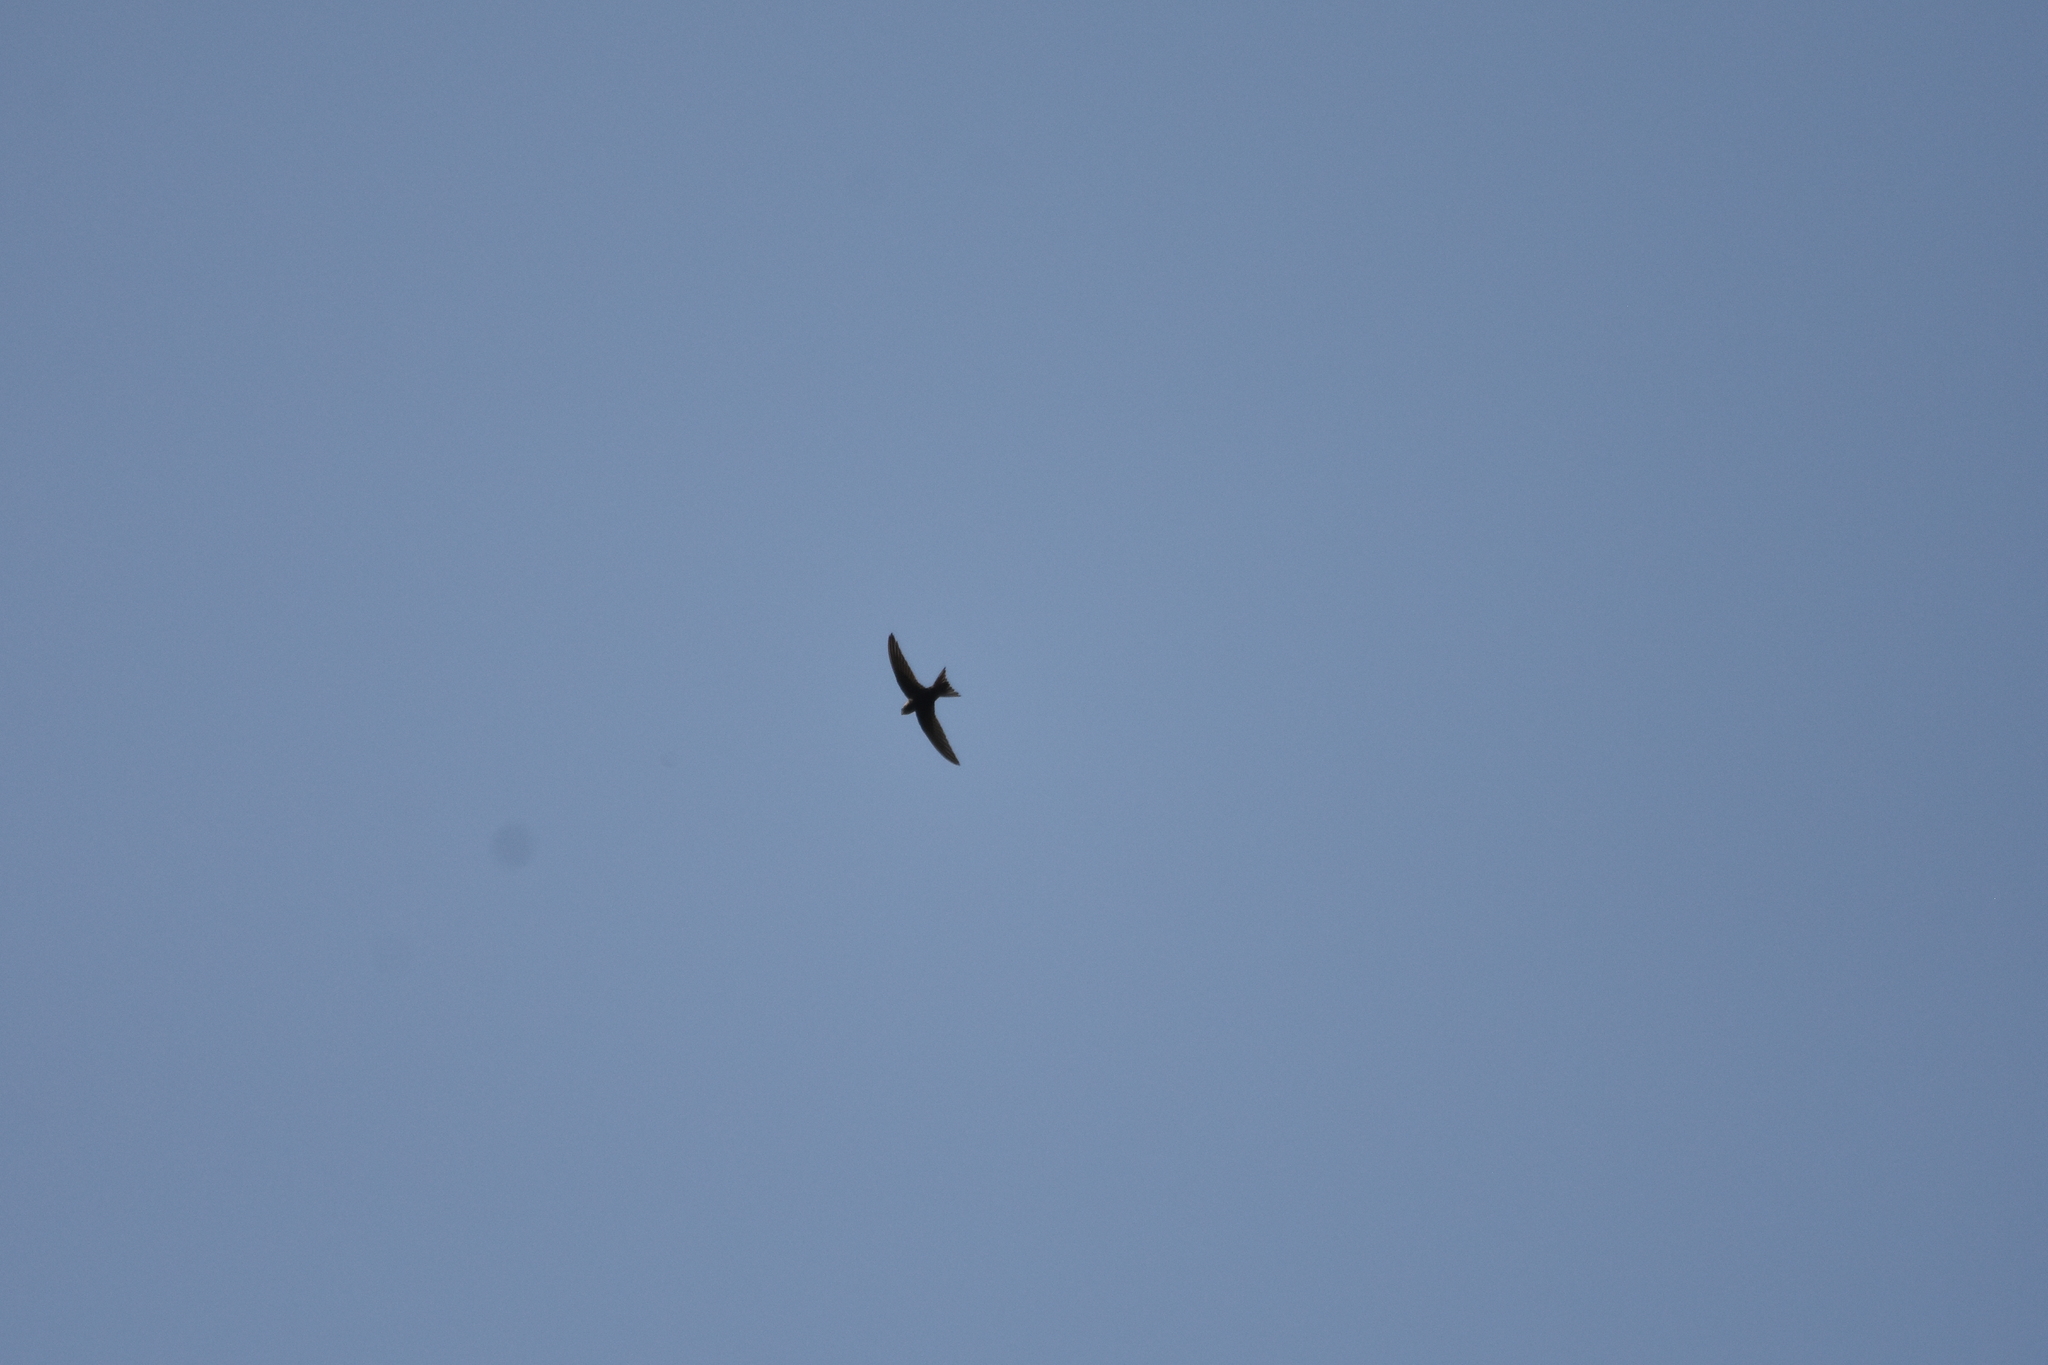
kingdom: Animalia
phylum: Chordata
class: Aves
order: Apodiformes
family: Apodidae
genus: Apus
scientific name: Apus apus
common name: Common swift
